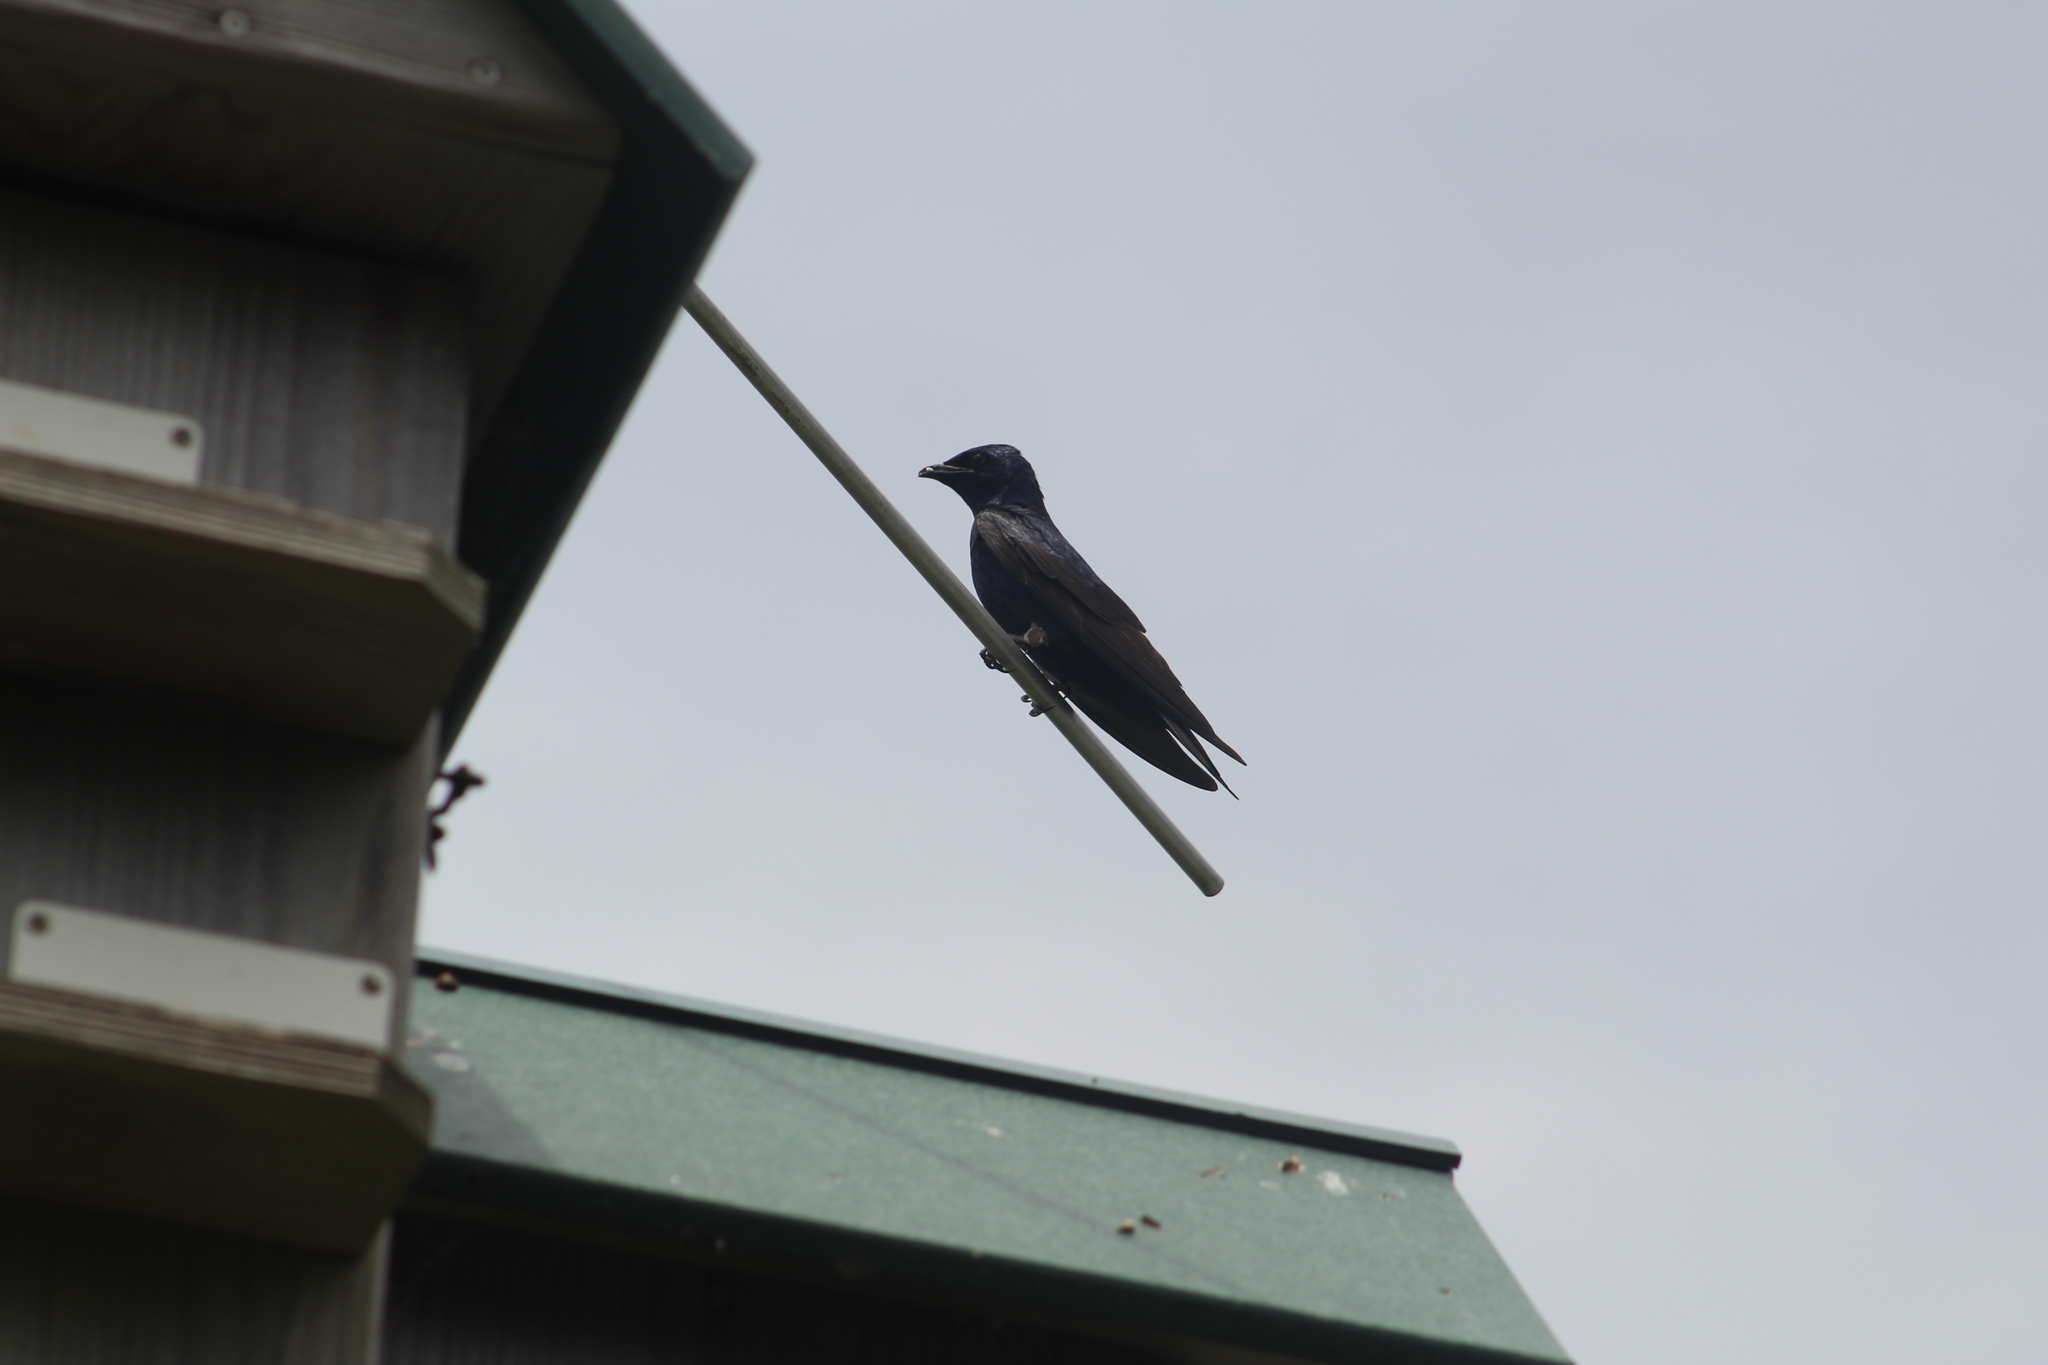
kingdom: Animalia
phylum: Chordata
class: Aves
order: Passeriformes
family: Hirundinidae
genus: Progne
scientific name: Progne subis
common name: Purple martin
